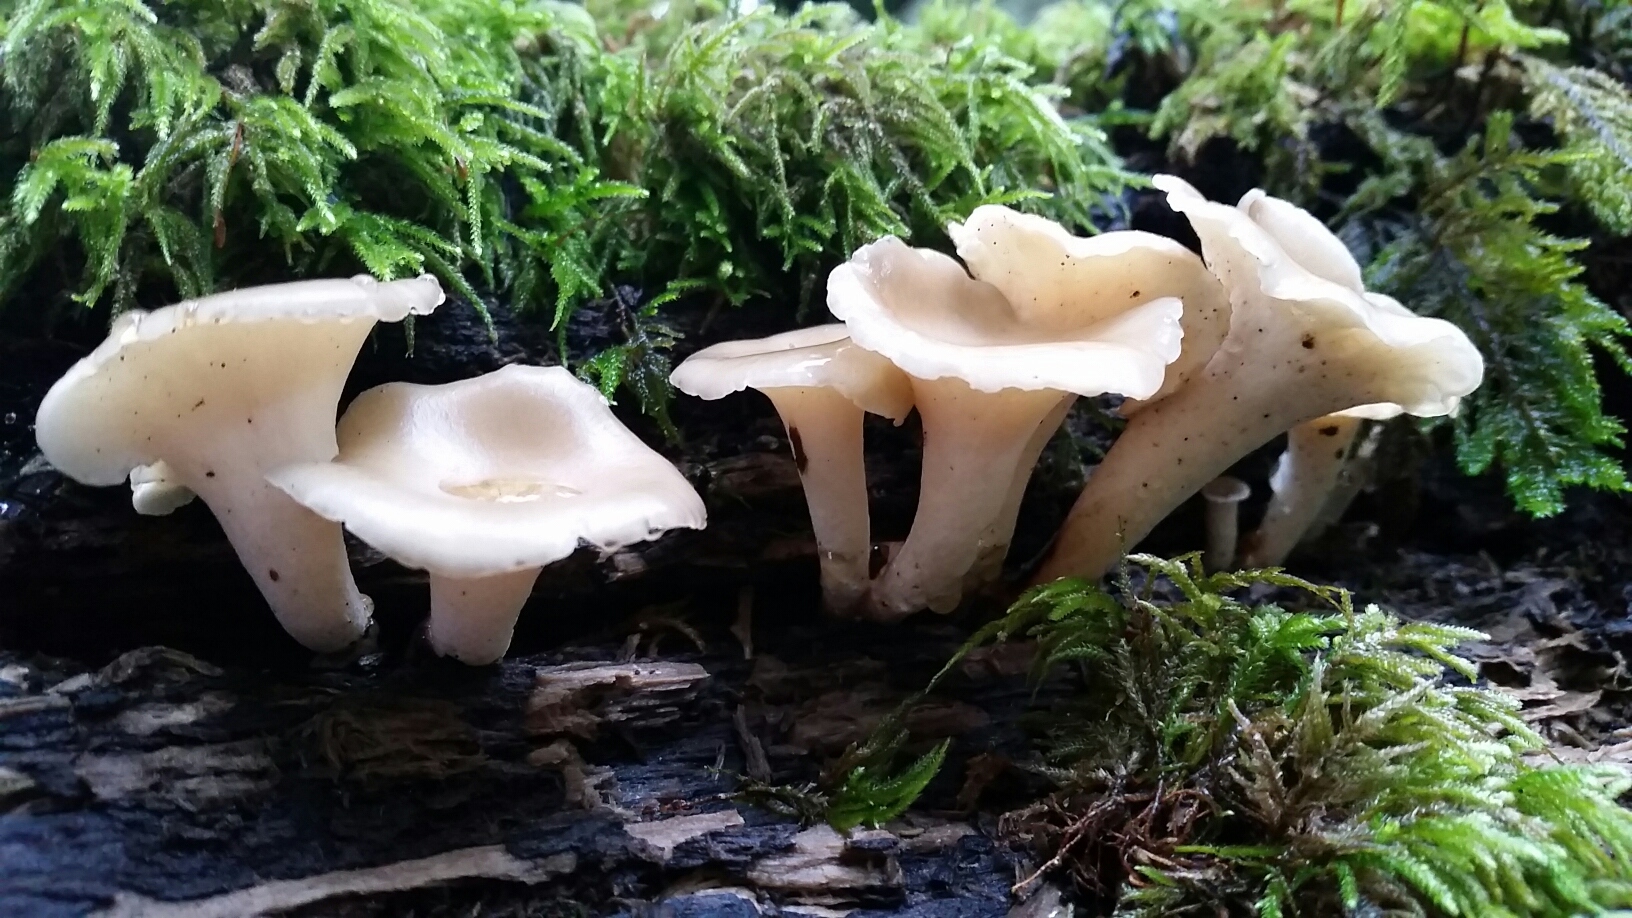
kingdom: Fungi
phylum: Basidiomycota
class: Agaricomycetes
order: Polyporales
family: Polyporaceae
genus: Picipes
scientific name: Picipes badius
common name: Bay polypore
